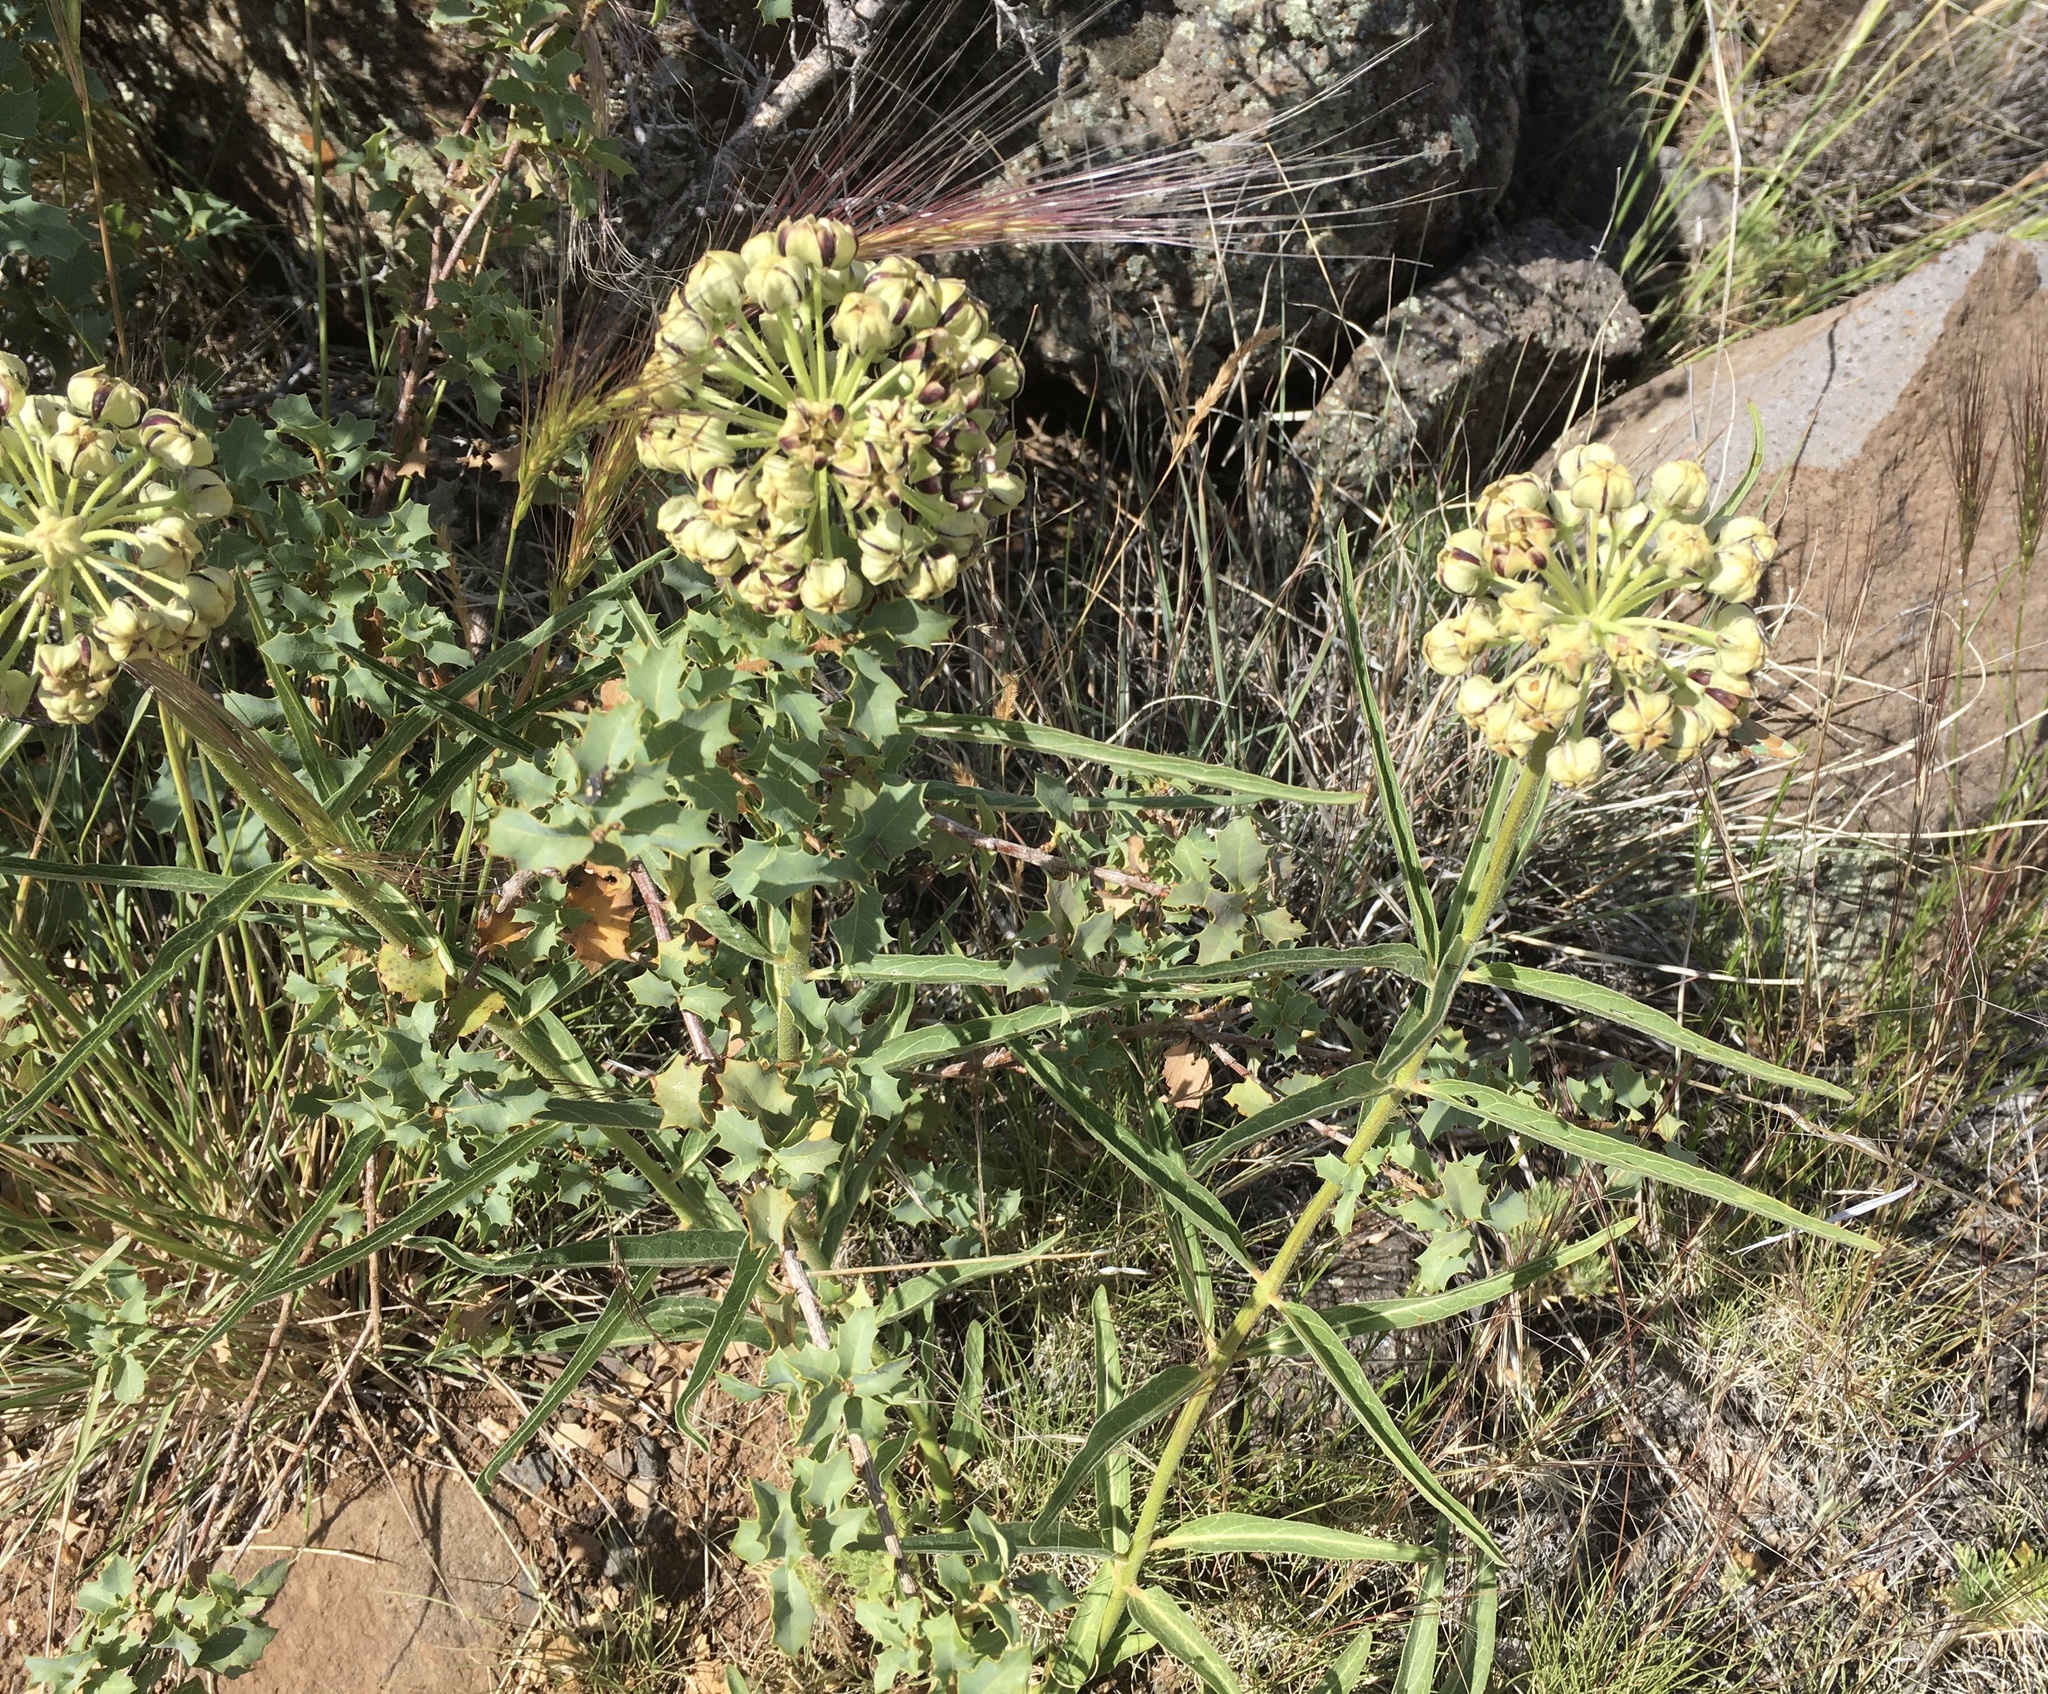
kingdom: Plantae
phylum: Tracheophyta
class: Magnoliopsida
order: Gentianales
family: Apocynaceae
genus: Asclepias
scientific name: Asclepias asperula
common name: Antelope horns
